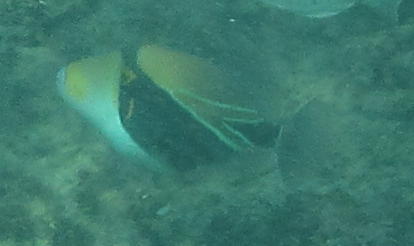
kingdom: Animalia
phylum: Chordata
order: Tetraodontiformes
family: Balistidae
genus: Rhinecanthus
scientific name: Rhinecanthus rectangulus
